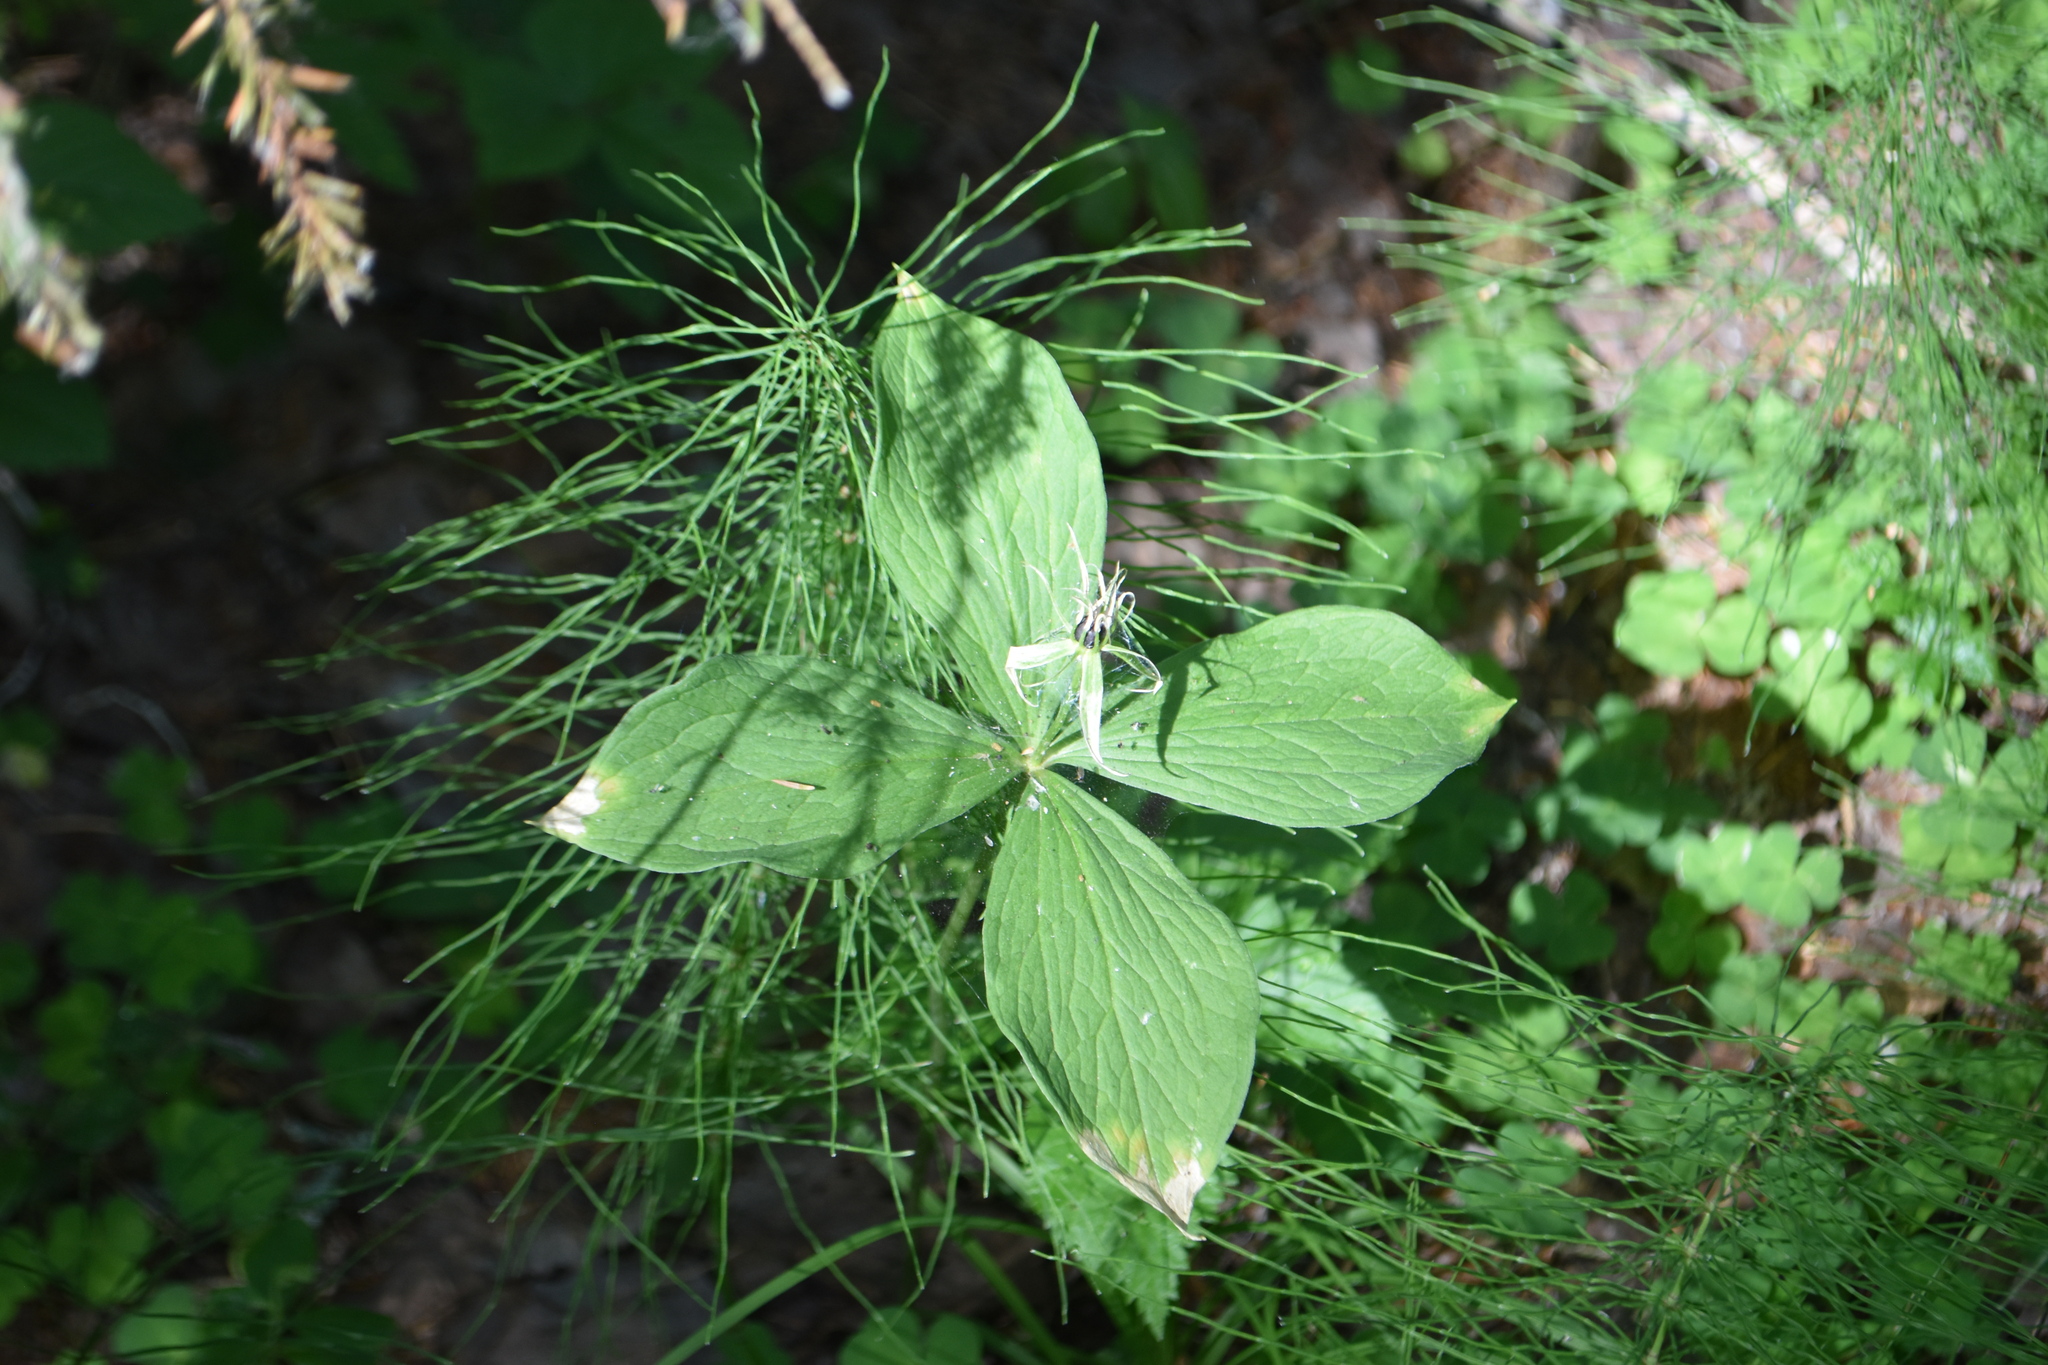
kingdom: Plantae
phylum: Tracheophyta
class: Liliopsida
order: Liliales
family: Melanthiaceae
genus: Paris
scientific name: Paris quadrifolia
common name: Herb-paris
